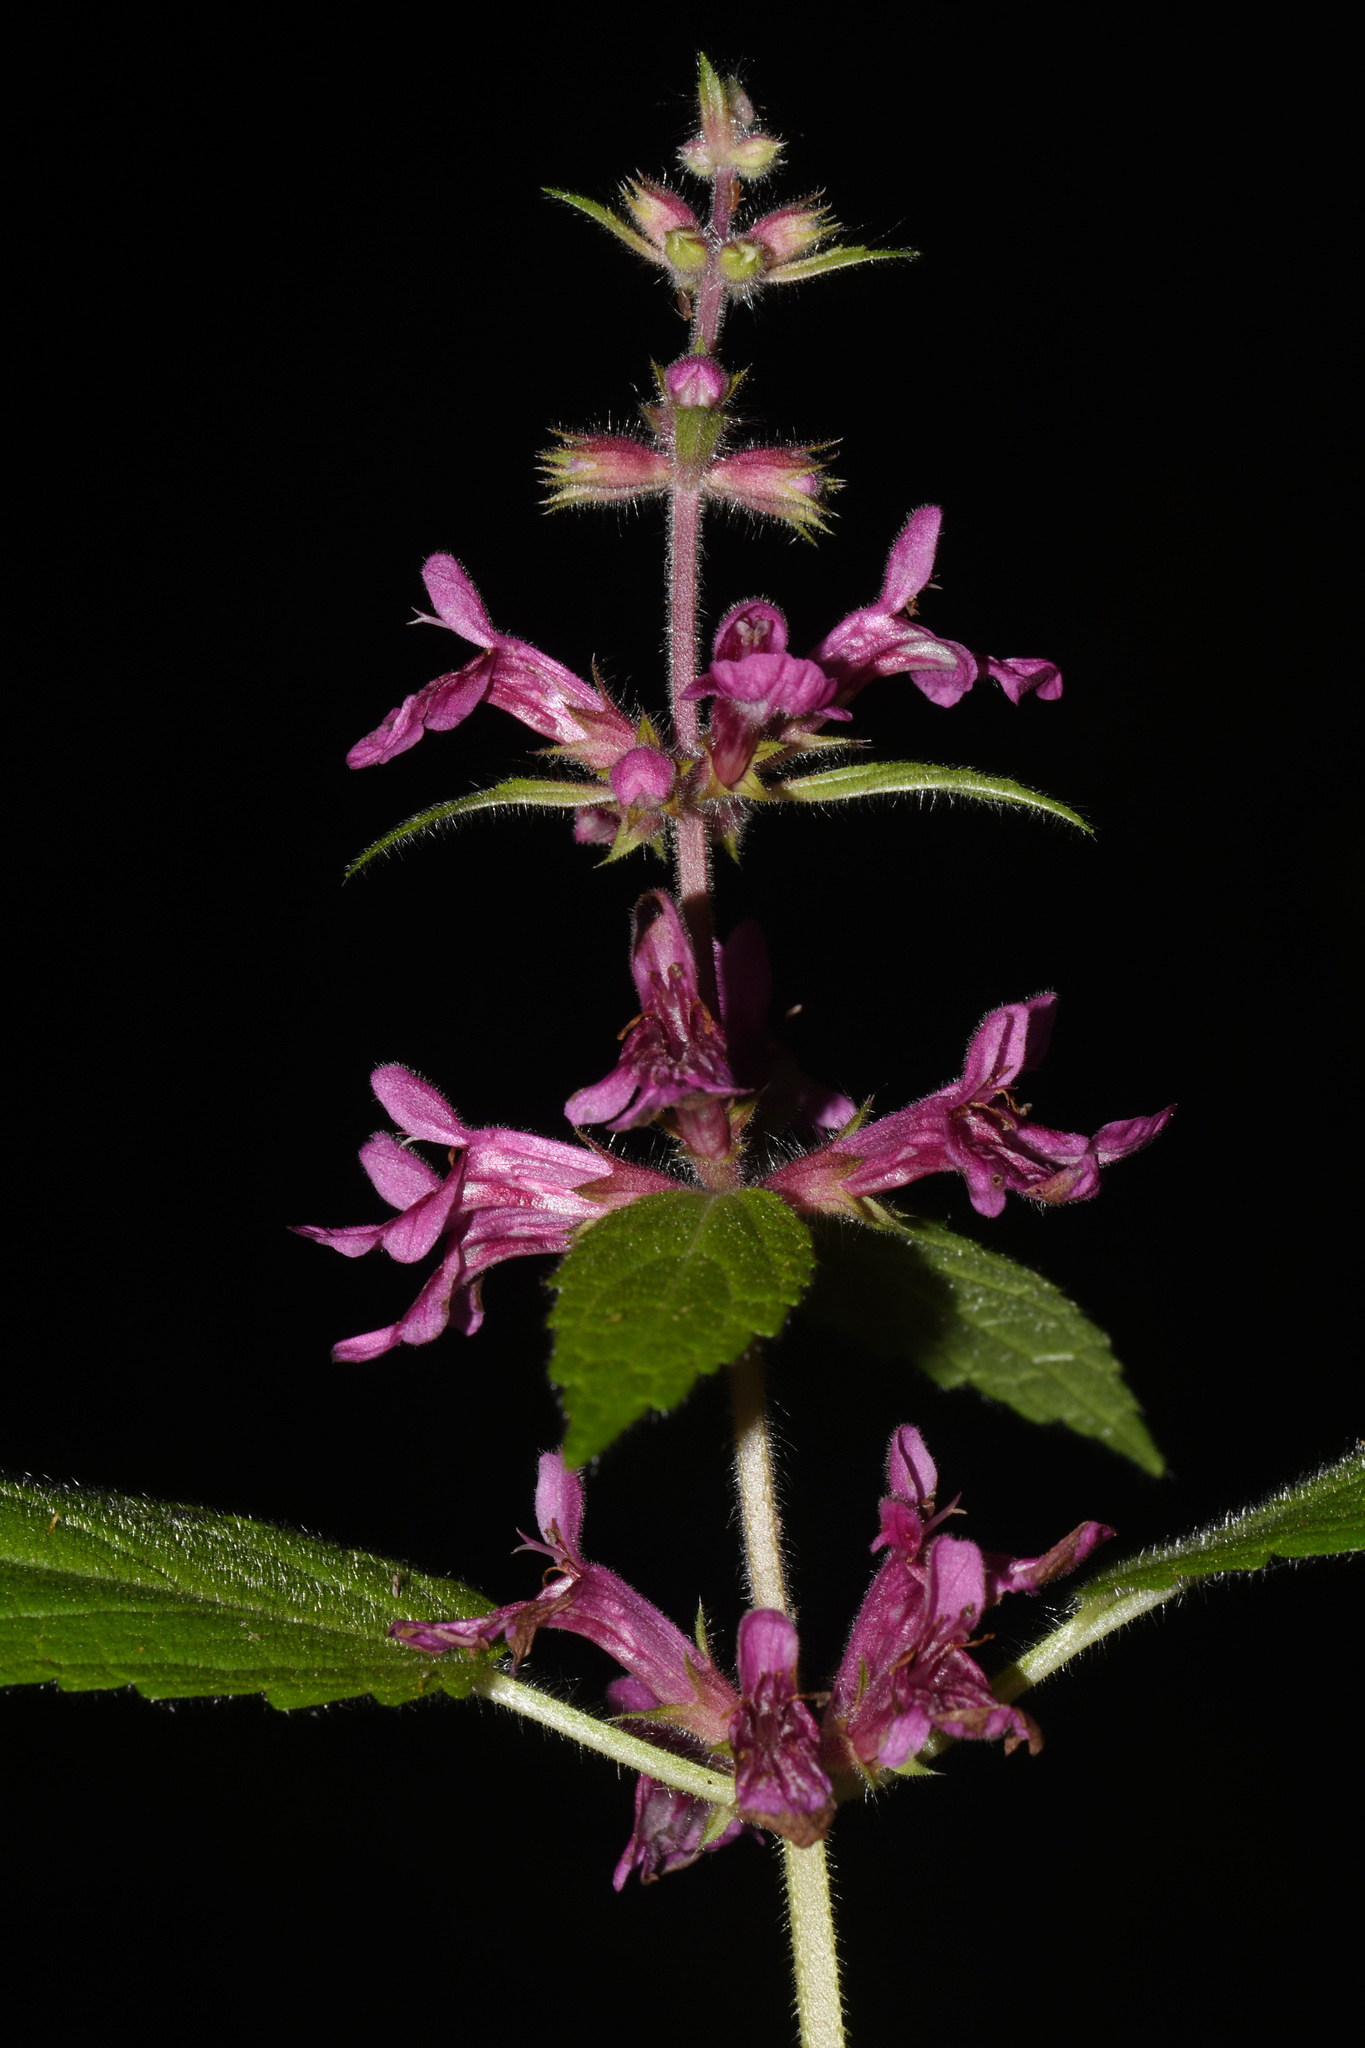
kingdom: Plantae
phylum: Tracheophyta
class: Magnoliopsida
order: Lamiales
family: Lamiaceae
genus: Stachys
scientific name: Stachys chamissonis
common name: Coastal hedge-nettle
